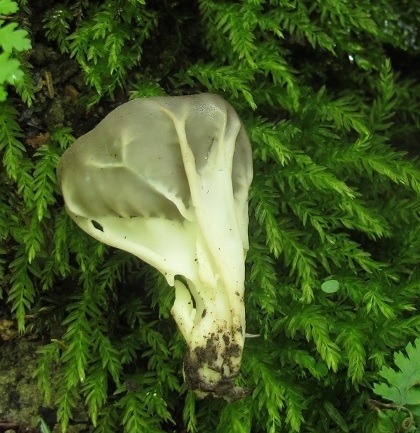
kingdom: Fungi
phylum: Ascomycota
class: Pezizomycetes
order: Pezizales
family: Helvellaceae
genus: Helvella
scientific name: Helvella griseoalba
